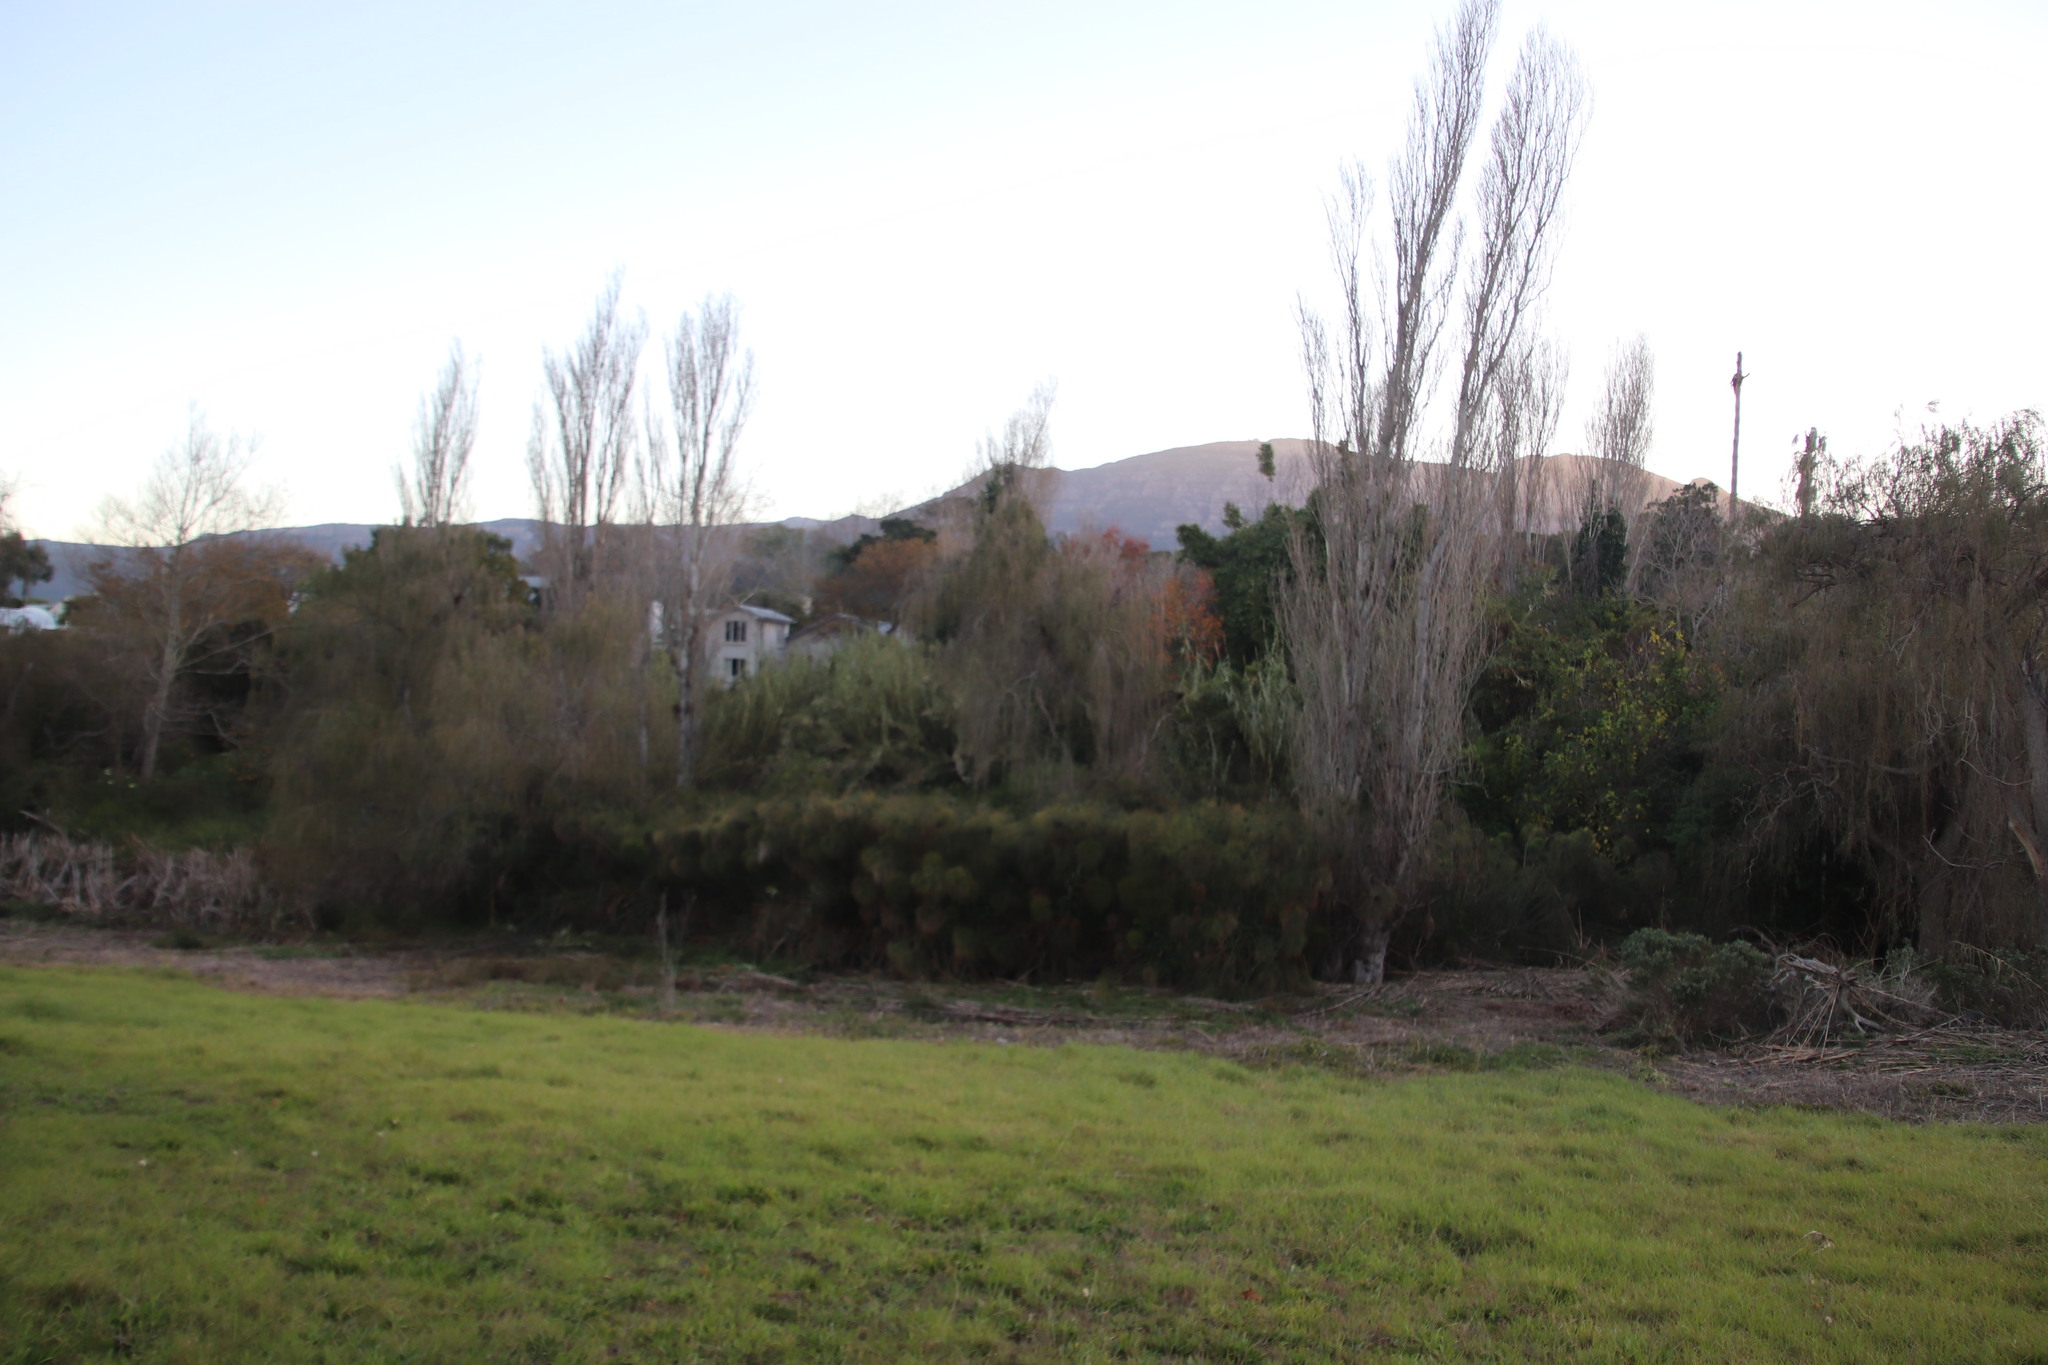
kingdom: Plantae
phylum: Tracheophyta
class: Liliopsida
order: Poales
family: Cyperaceae
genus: Cyperus
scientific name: Cyperus papyrus
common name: Papyrus
